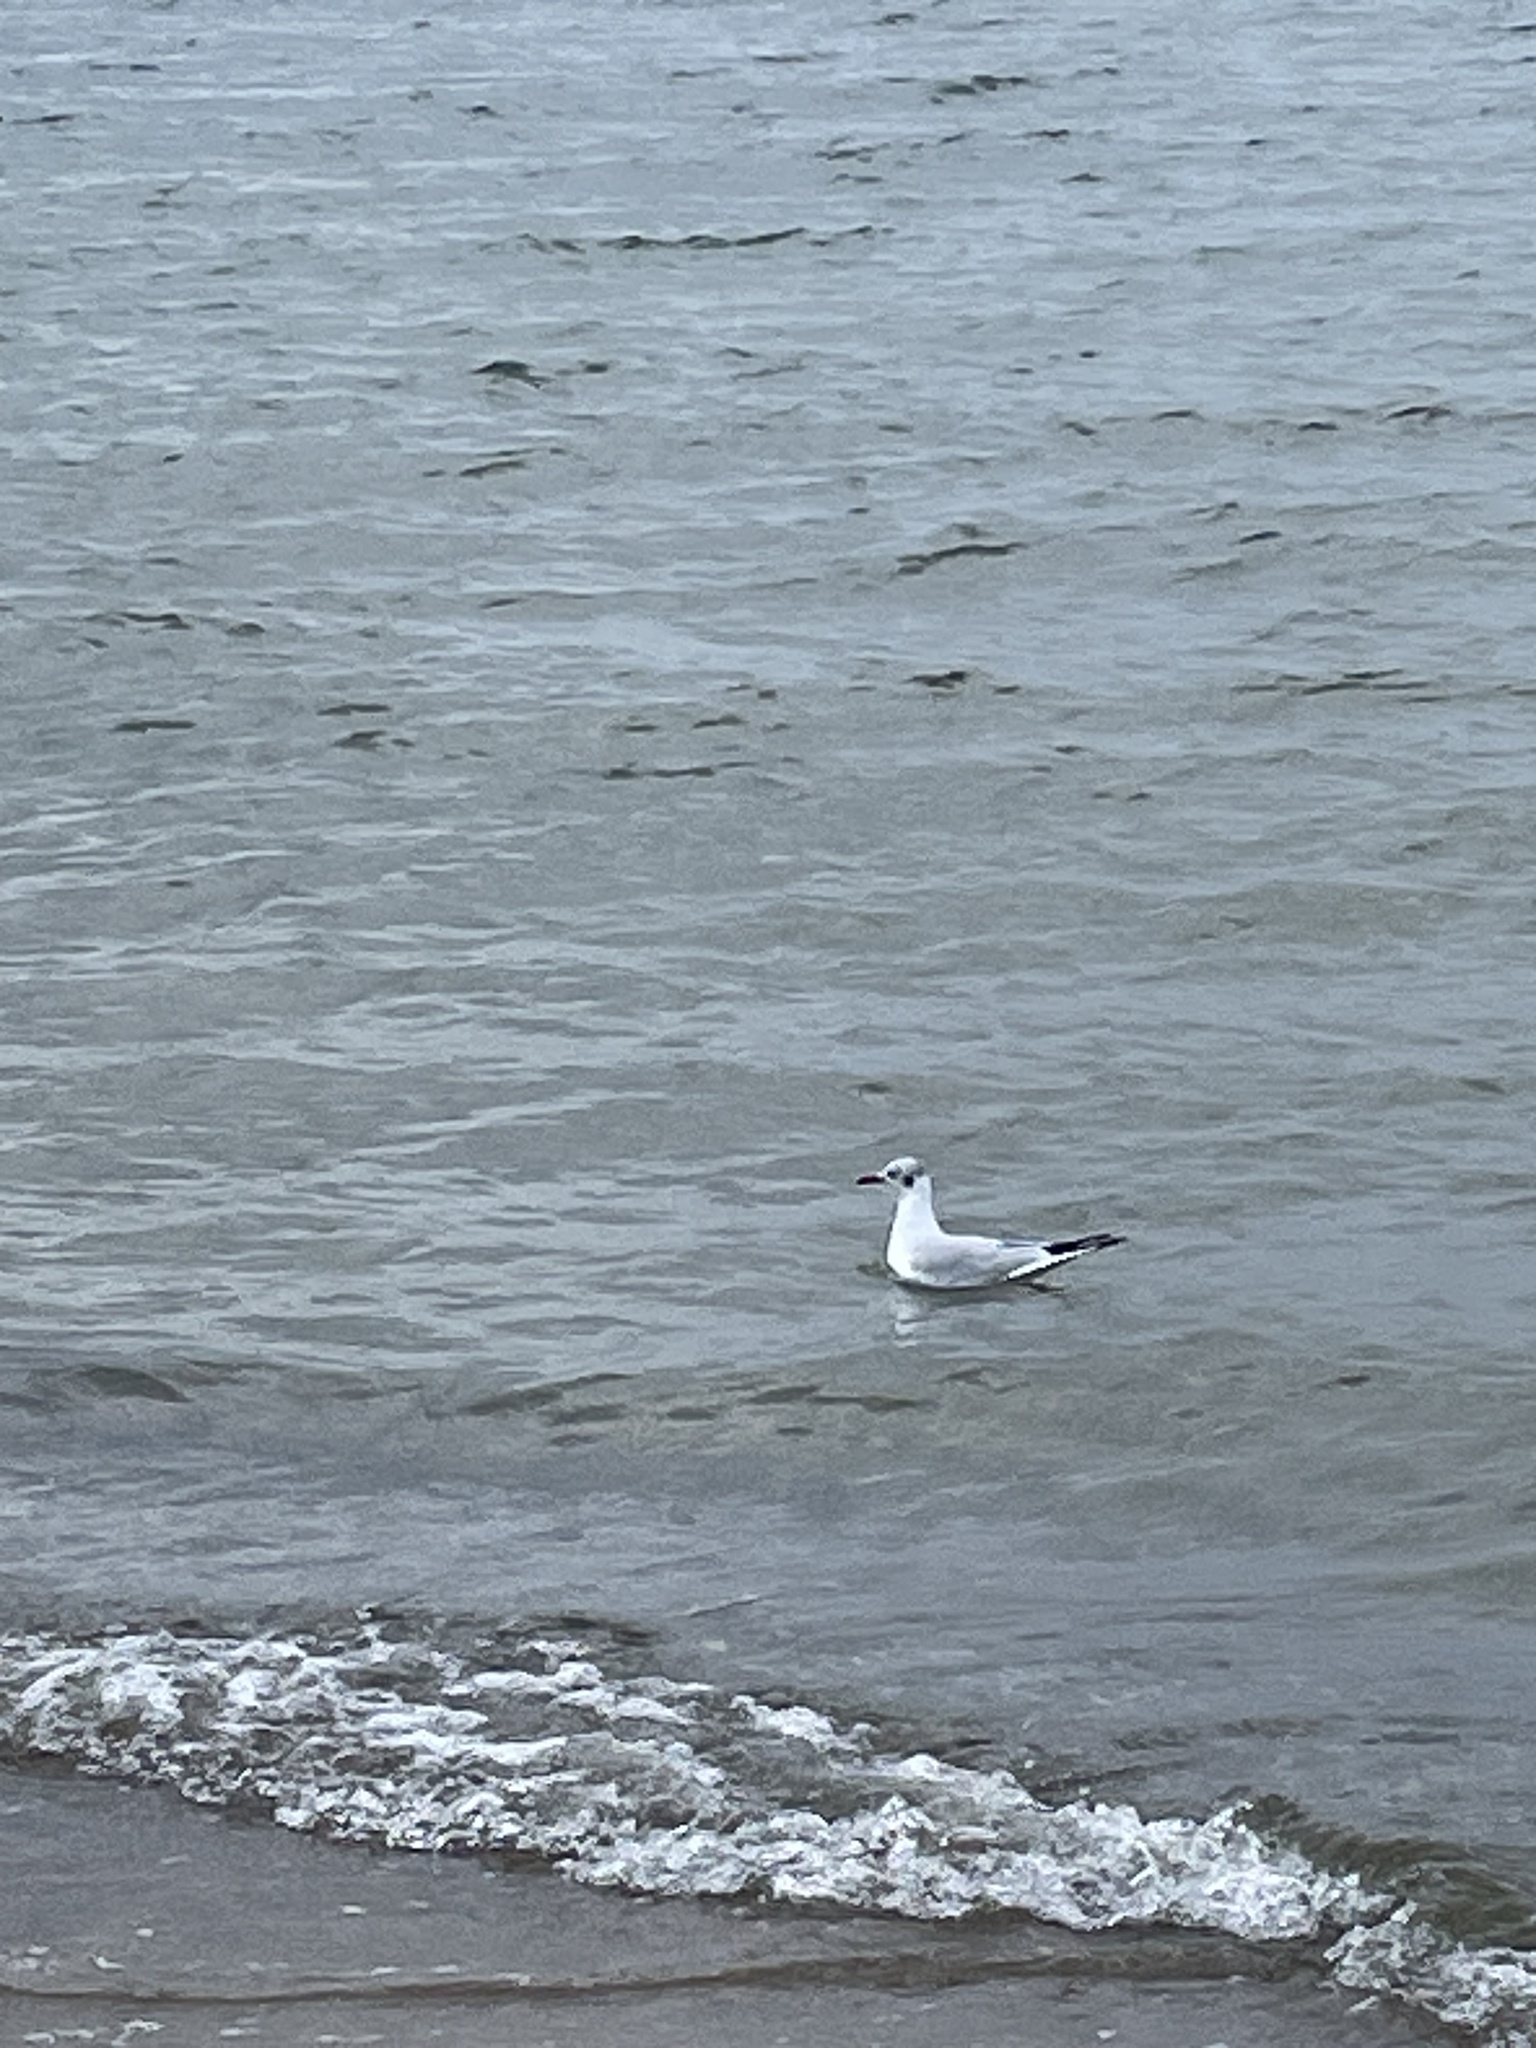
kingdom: Animalia
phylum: Chordata
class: Aves
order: Charadriiformes
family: Laridae
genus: Chroicocephalus
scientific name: Chroicocephalus ridibundus
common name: Black-headed gull
